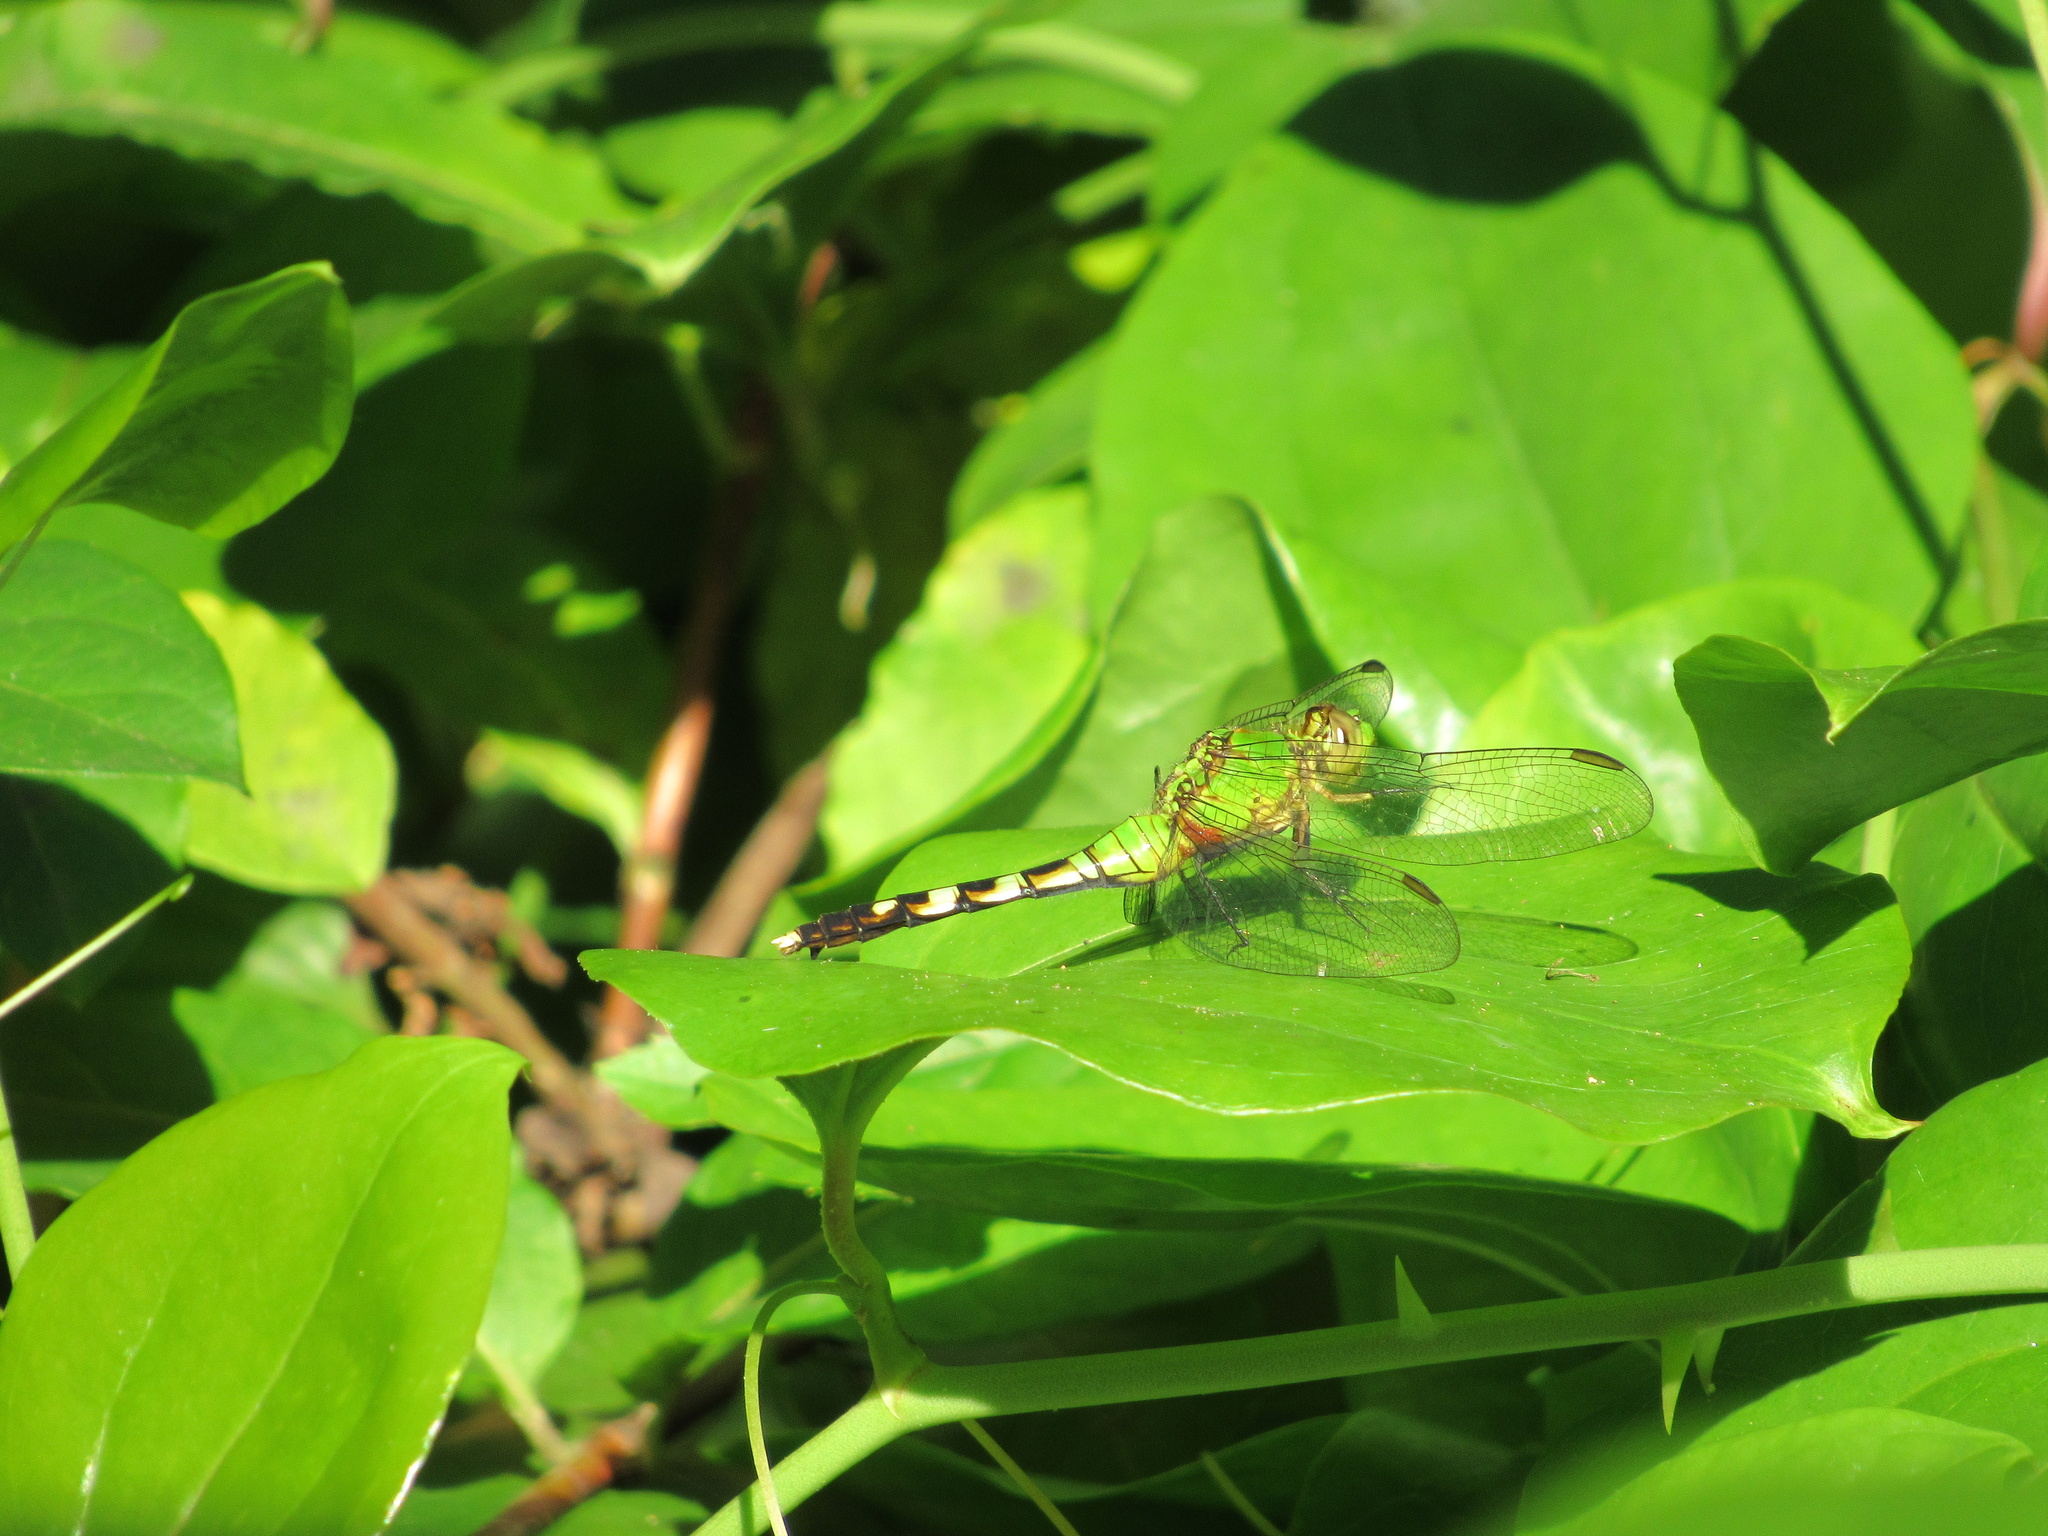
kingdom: Animalia
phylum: Arthropoda
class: Insecta
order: Odonata
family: Libellulidae
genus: Erythemis
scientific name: Erythemis simplicicollis
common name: Eastern pondhawk
